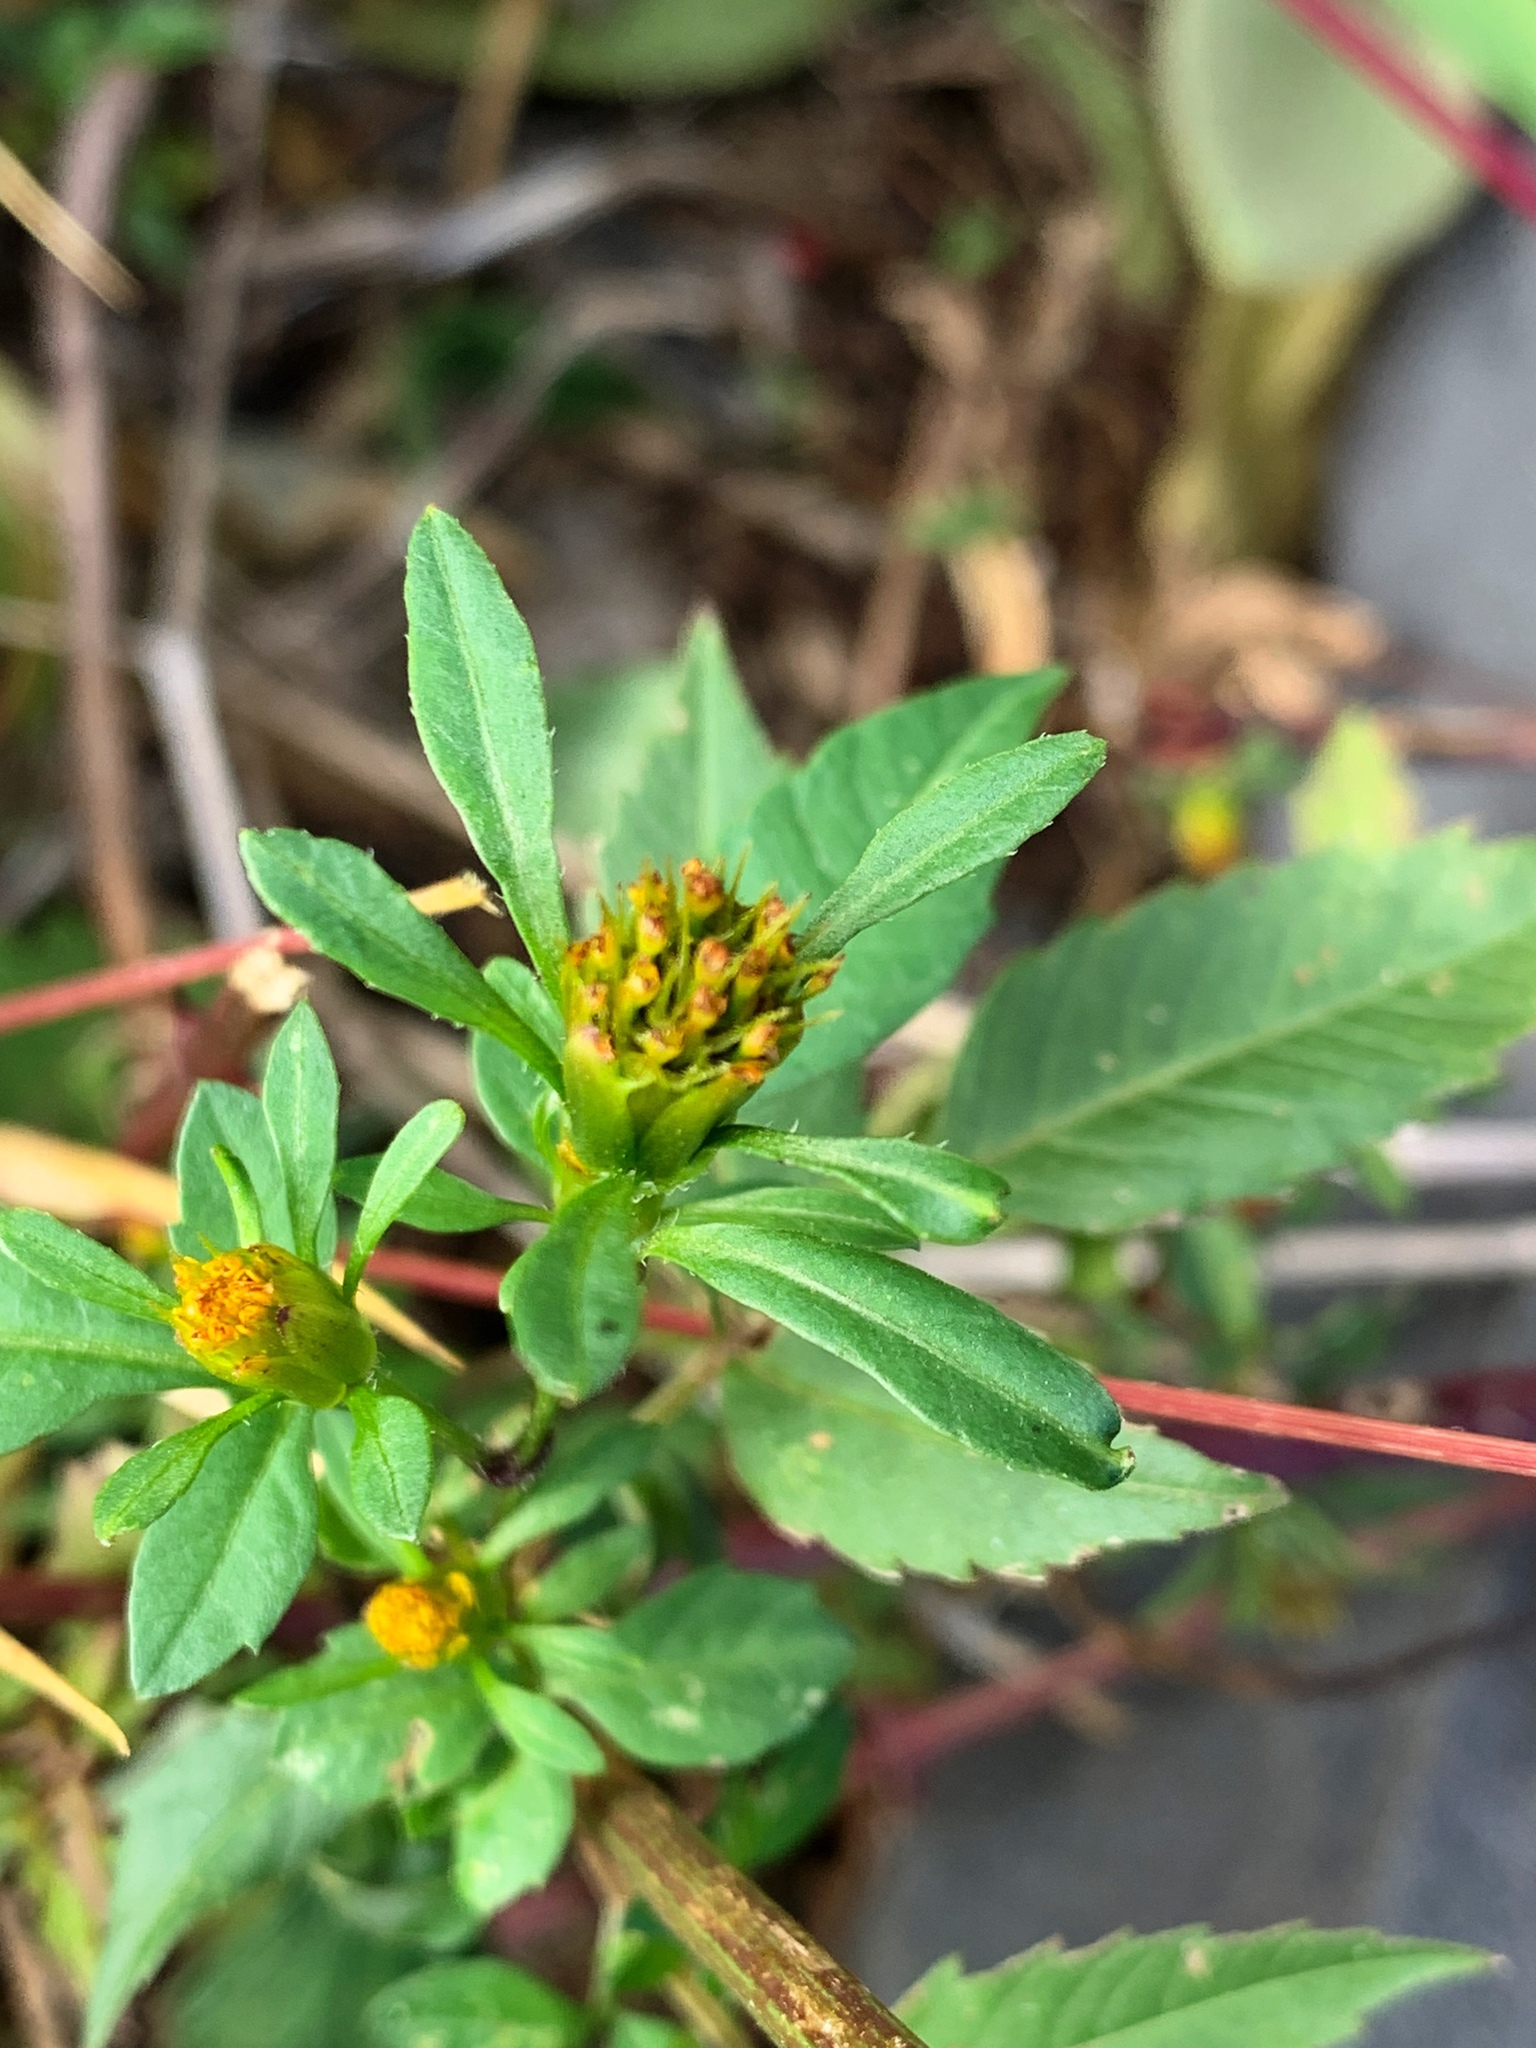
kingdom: Plantae
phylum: Tracheophyta
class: Magnoliopsida
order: Asterales
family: Asteraceae
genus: Bidens
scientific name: Bidens frondosa
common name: Beggarticks
